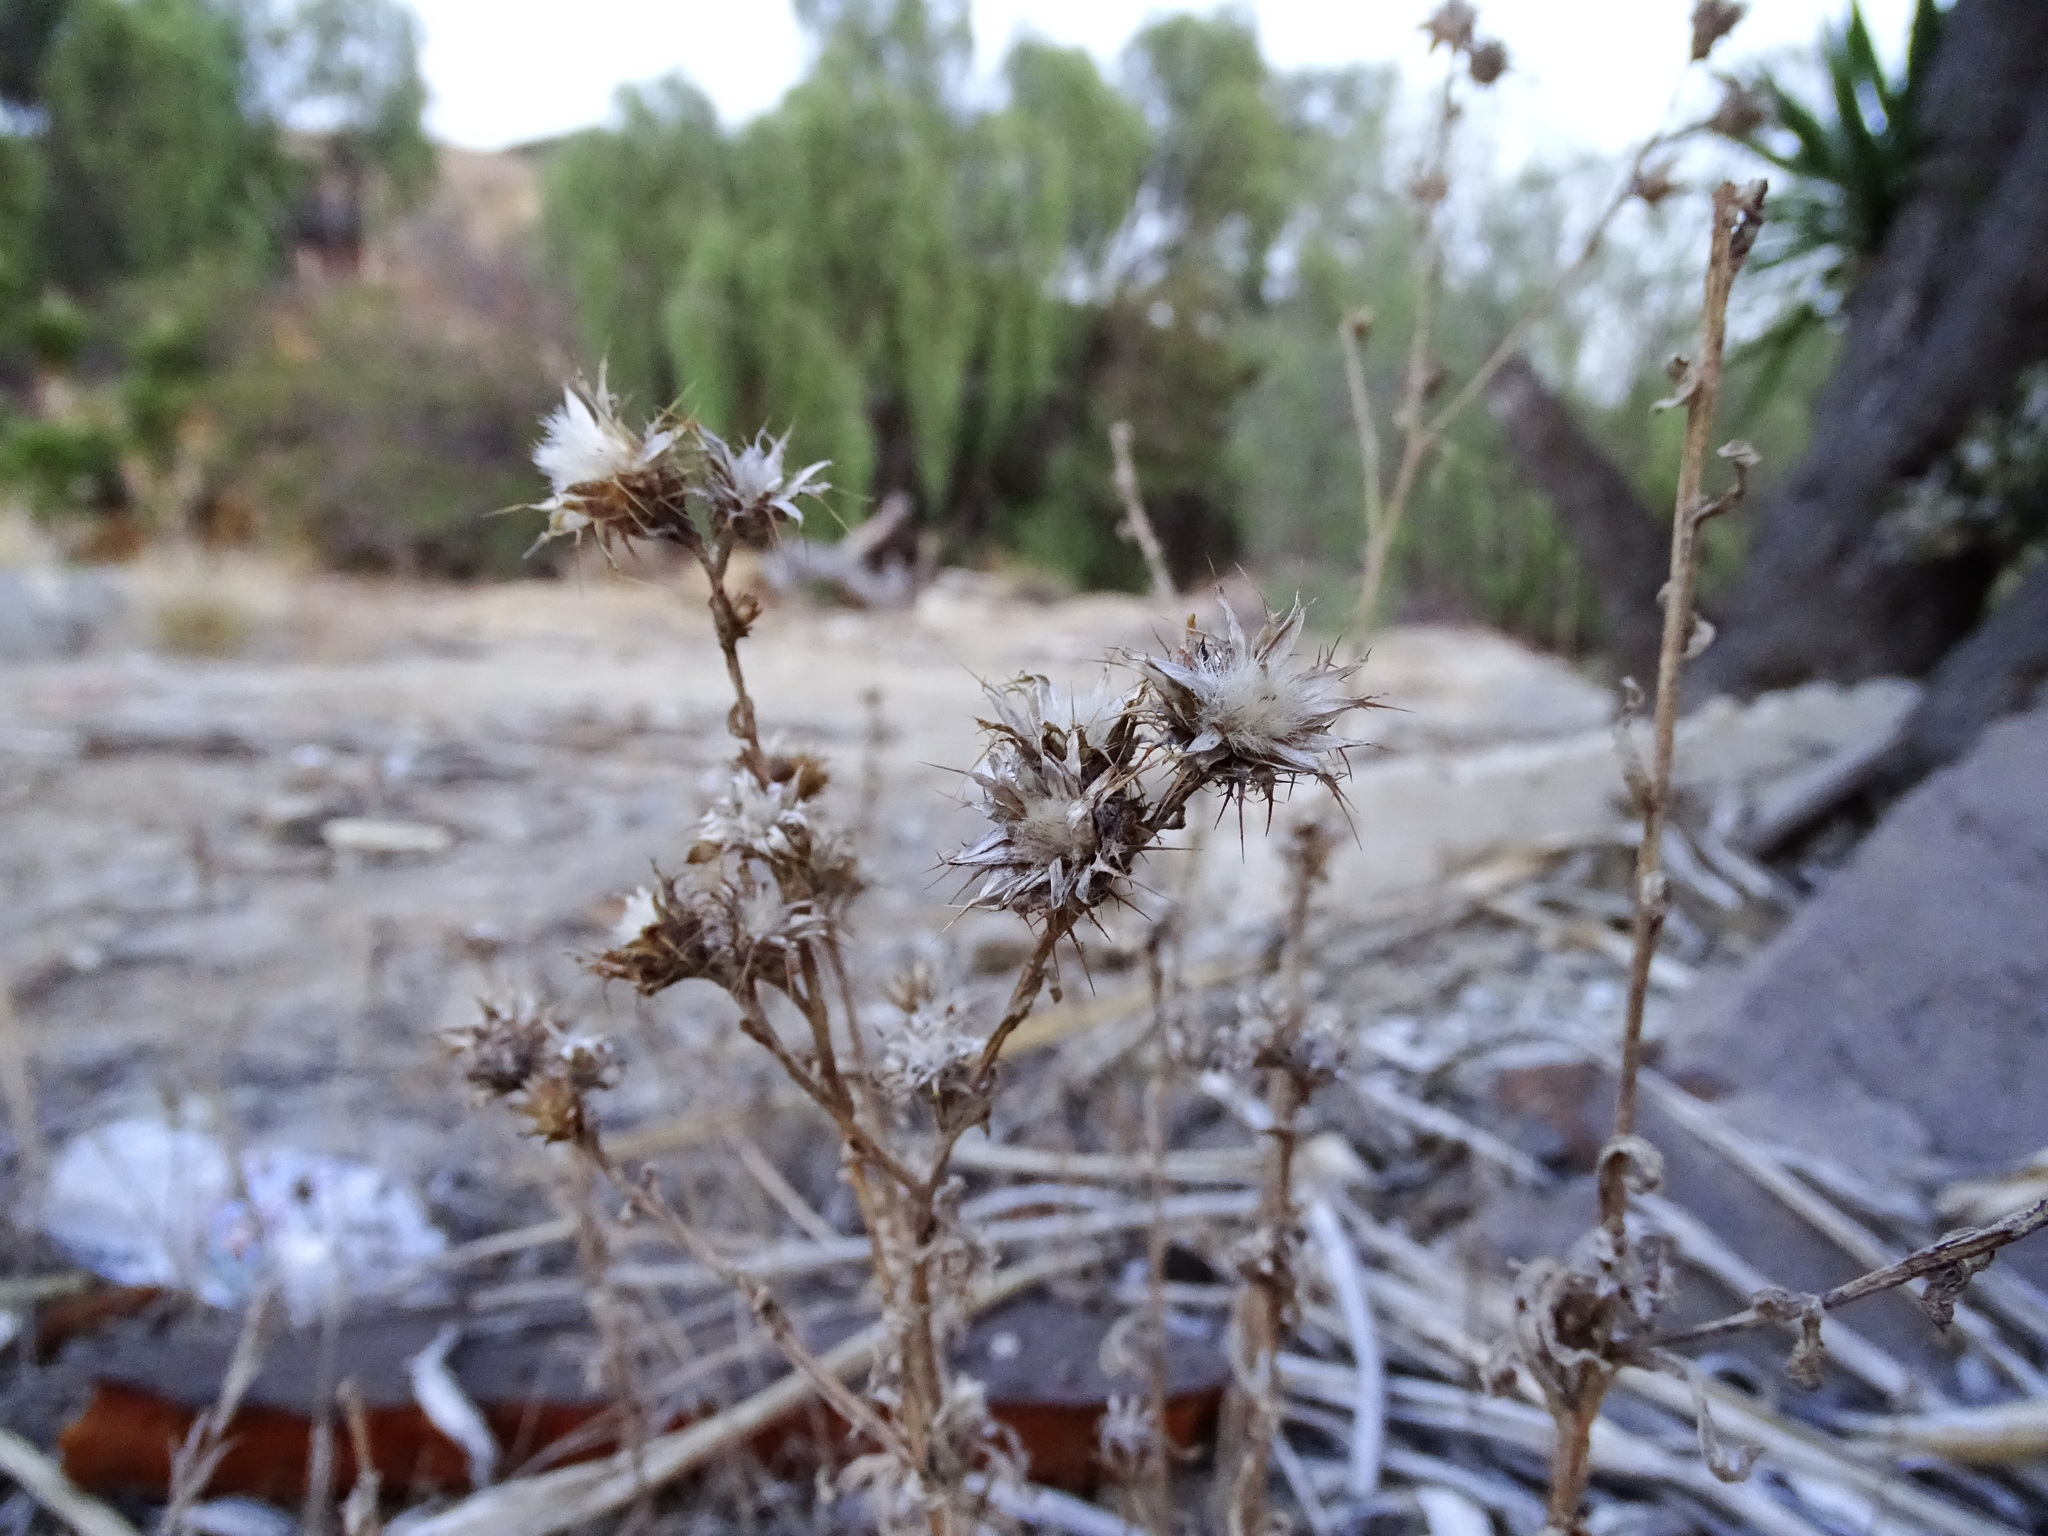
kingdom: Plantae
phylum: Tracheophyta
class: Magnoliopsida
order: Asterales
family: Asteraceae
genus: Centaurea
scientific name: Centaurea melitensis
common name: Maltese star-thistle
